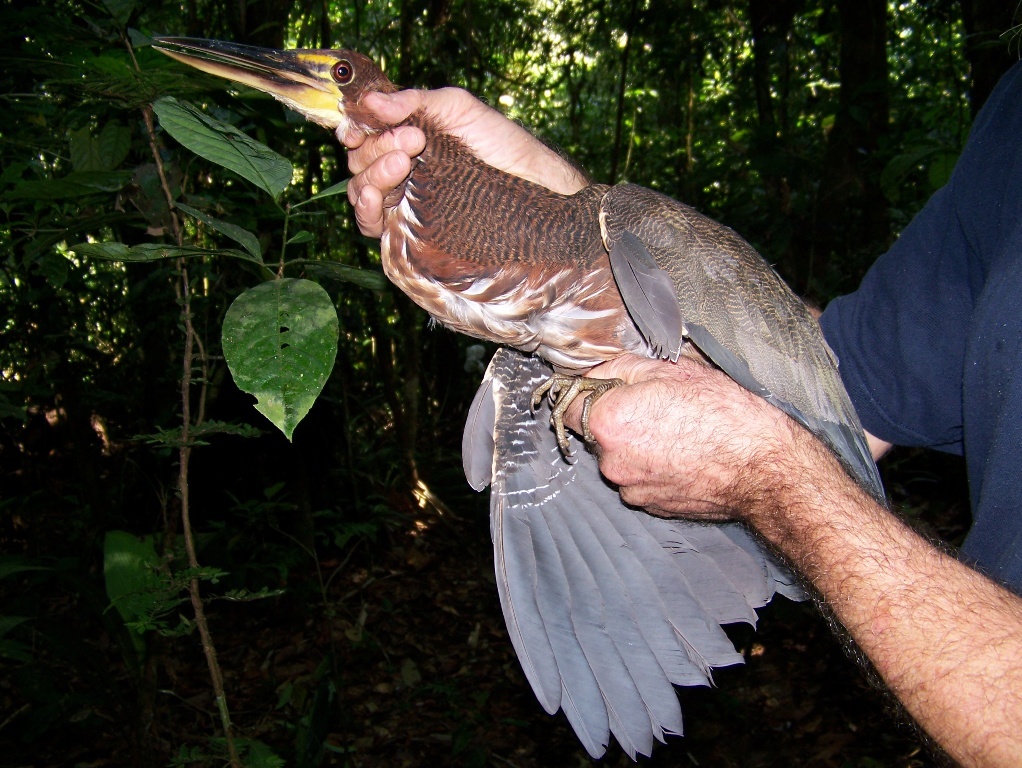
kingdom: Animalia
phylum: Chordata
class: Aves
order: Pelecaniformes
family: Ardeidae
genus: Tigrisoma
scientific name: Tigrisoma lineatum
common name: Rufescent tiger-heron
